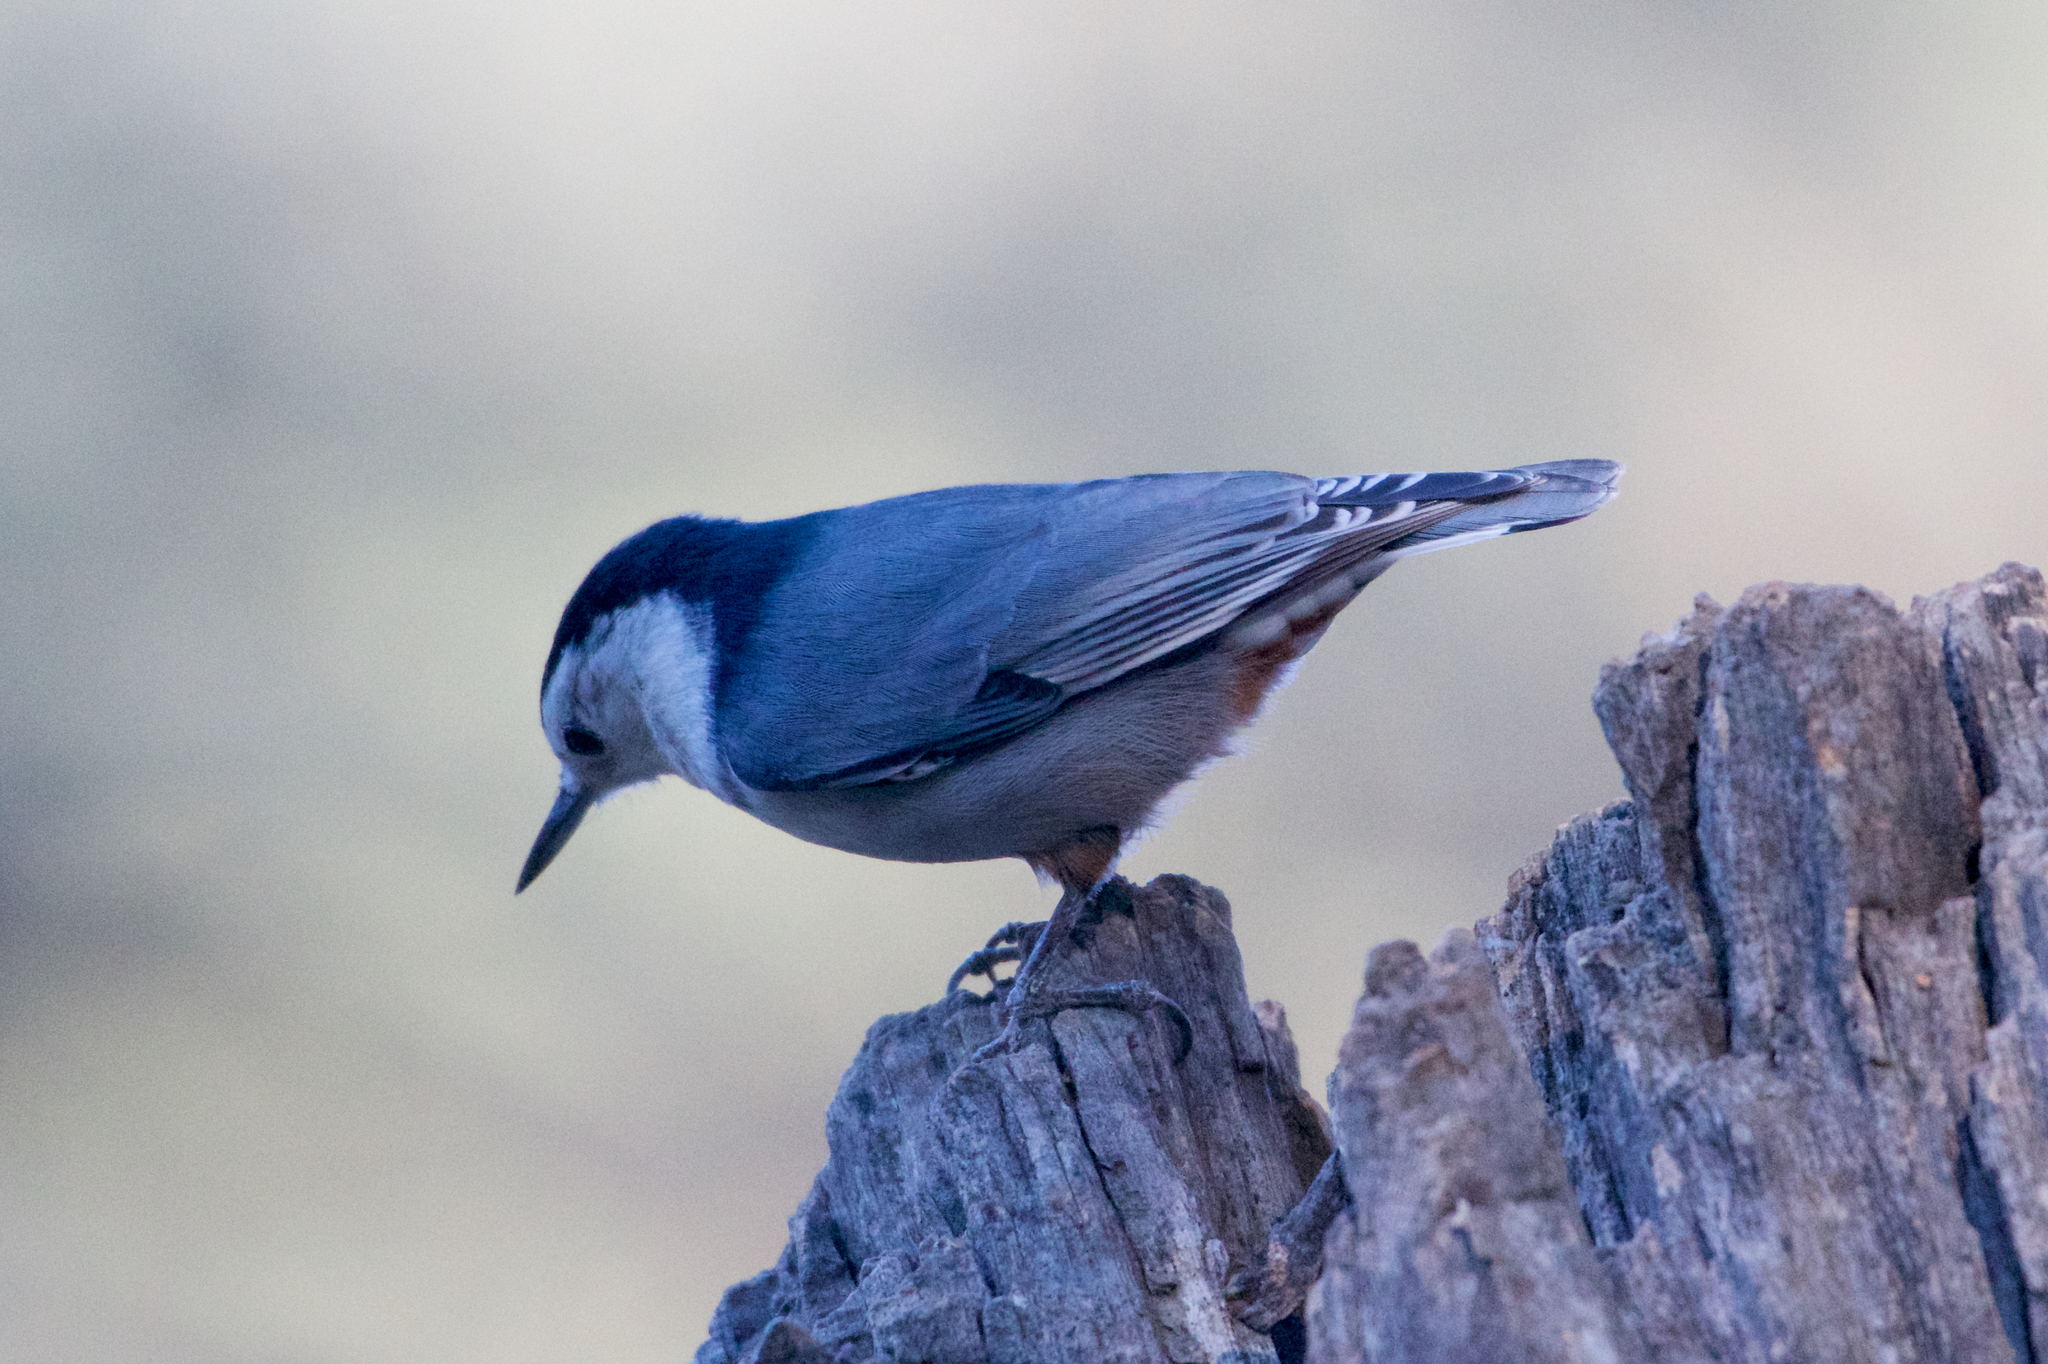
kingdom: Animalia
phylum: Chordata
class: Aves
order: Passeriformes
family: Sittidae
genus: Sitta
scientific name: Sitta carolinensis
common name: White-breasted nuthatch
